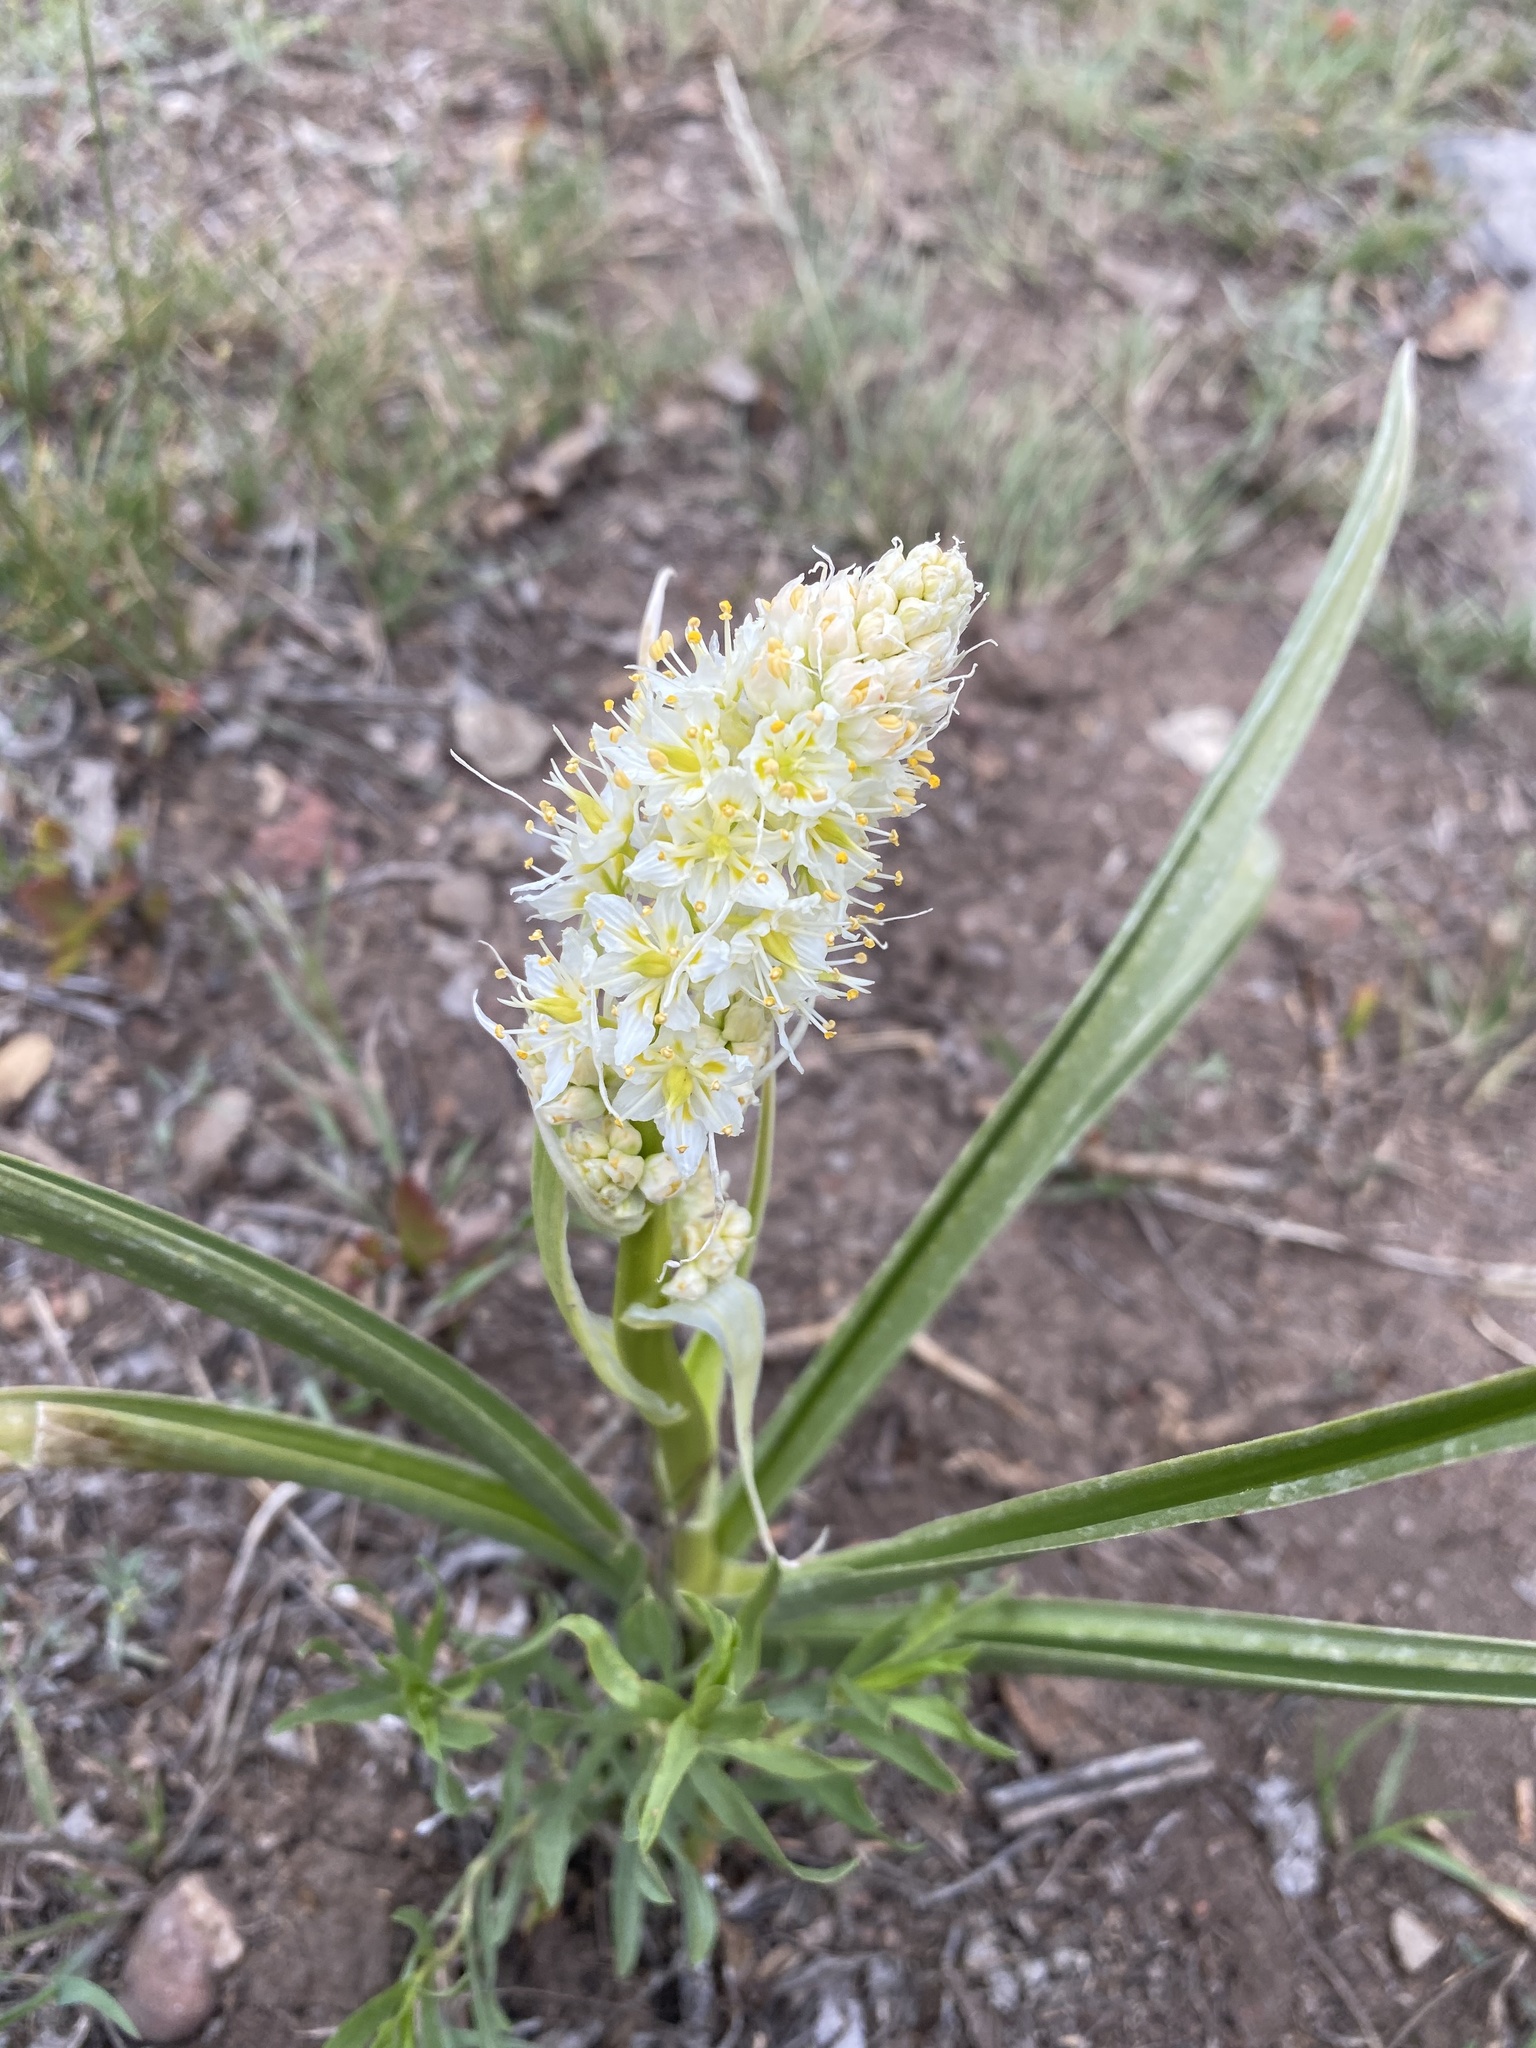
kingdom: Plantae
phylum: Tracheophyta
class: Liliopsida
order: Liliales
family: Melanthiaceae
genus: Toxicoscordion
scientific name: Toxicoscordion paniculatum
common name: Foothill death camas
